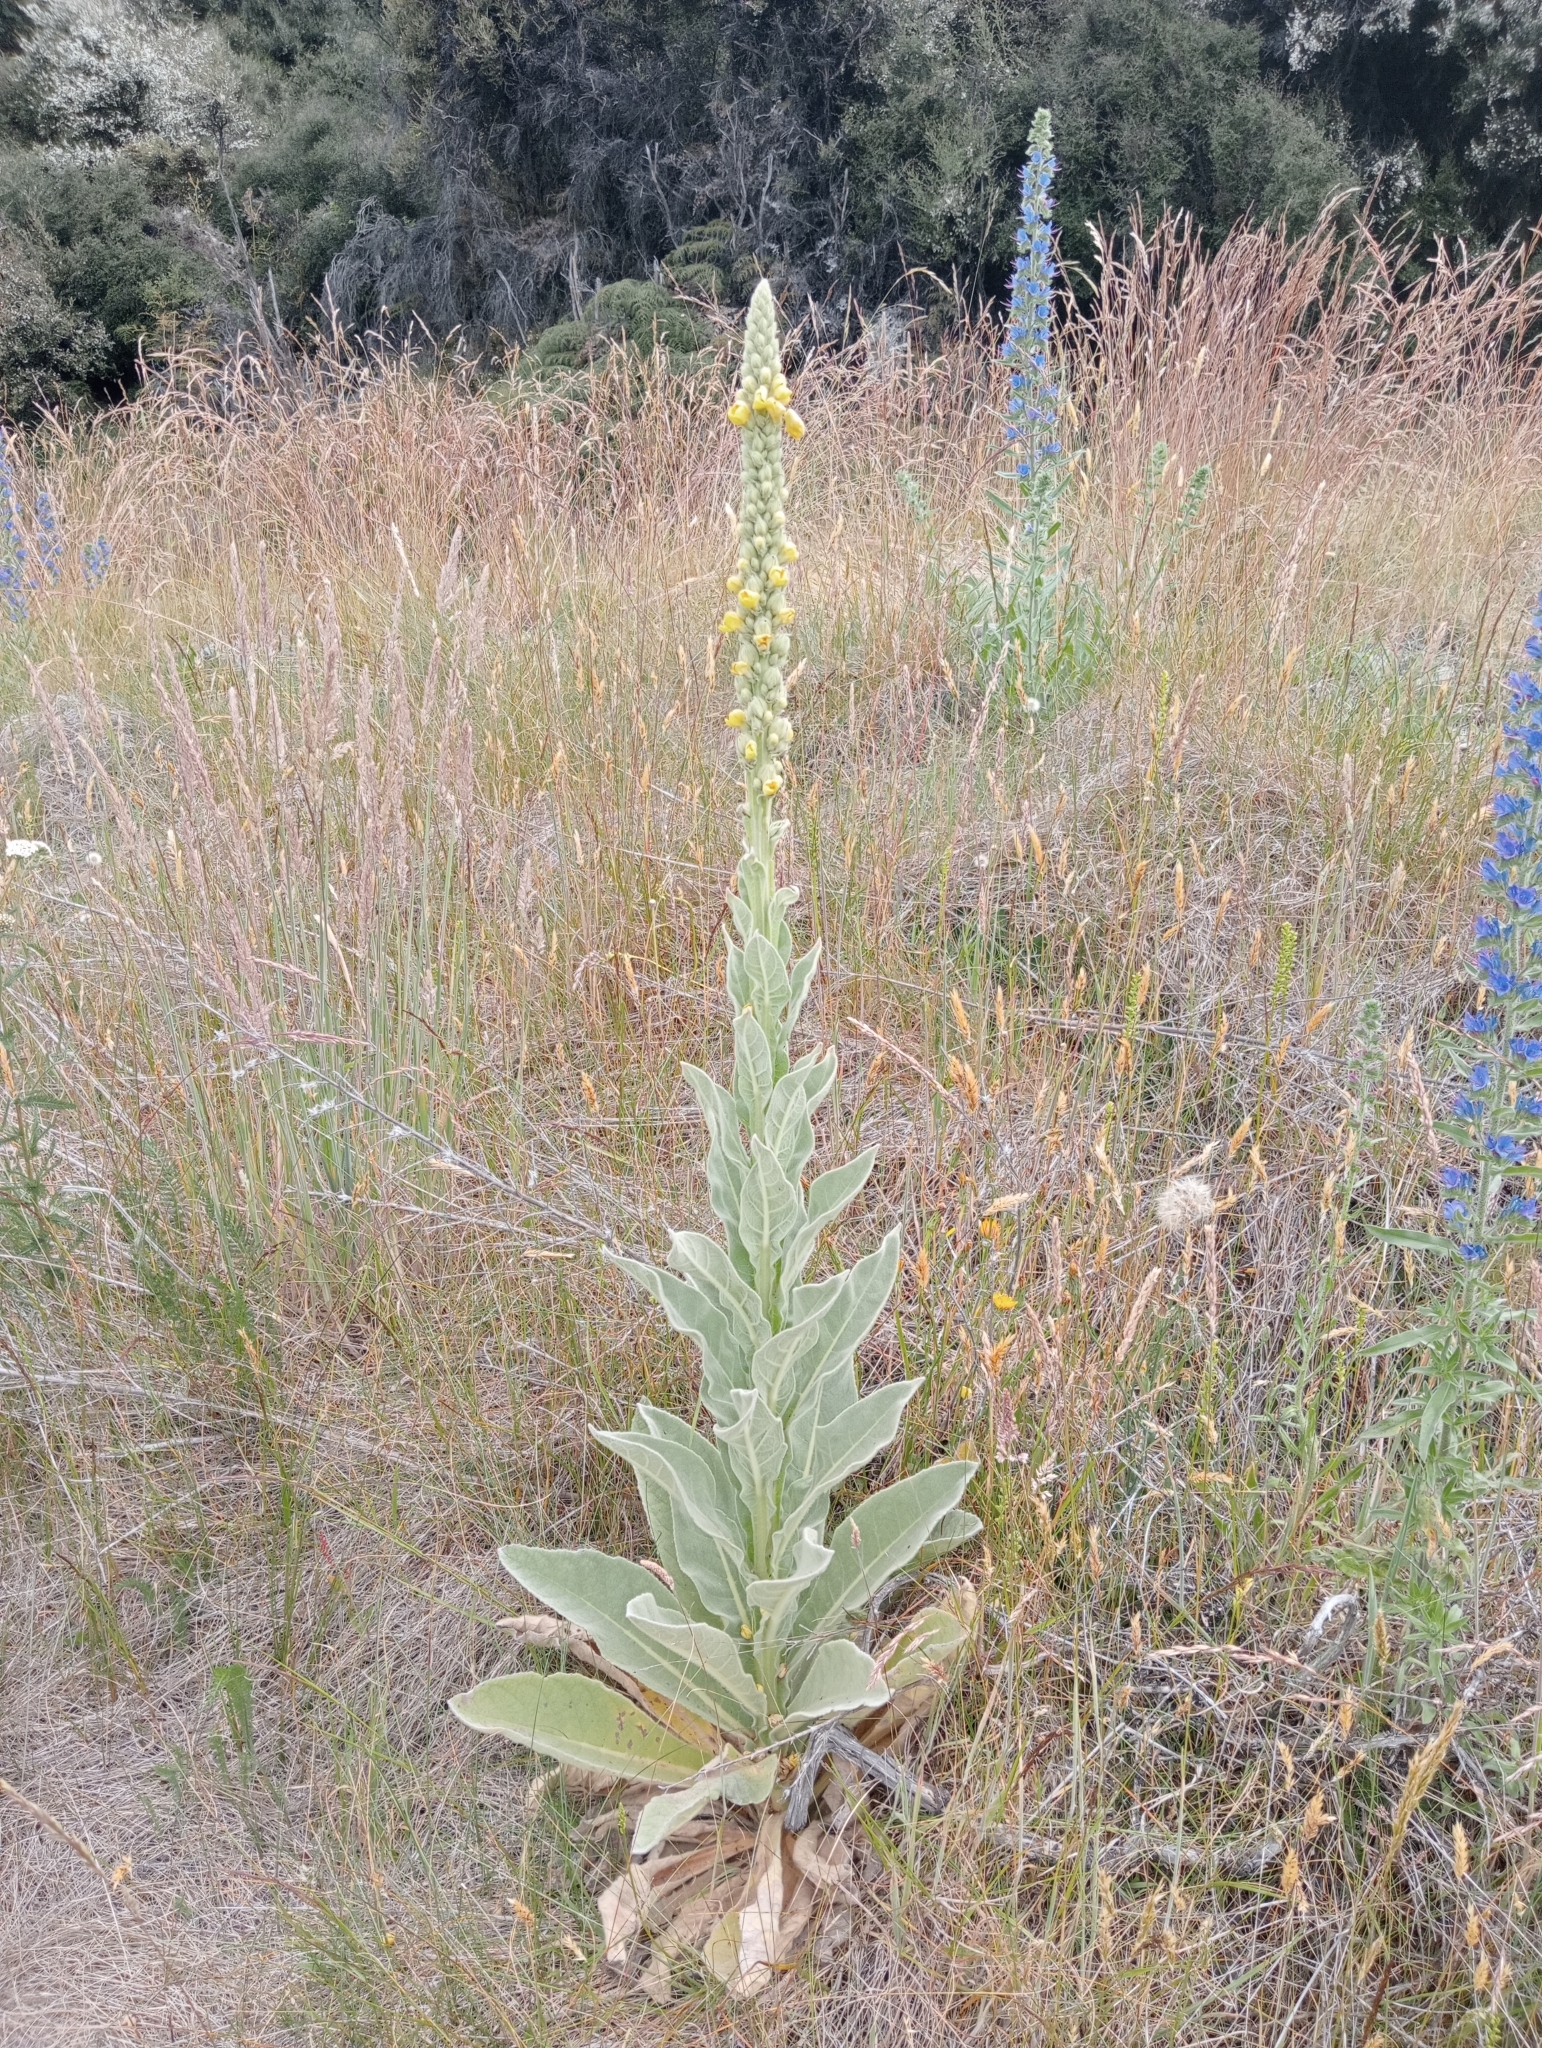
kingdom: Plantae
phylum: Tracheophyta
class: Magnoliopsida
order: Lamiales
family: Scrophulariaceae
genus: Verbascum
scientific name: Verbascum thapsus
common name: Common mullein
